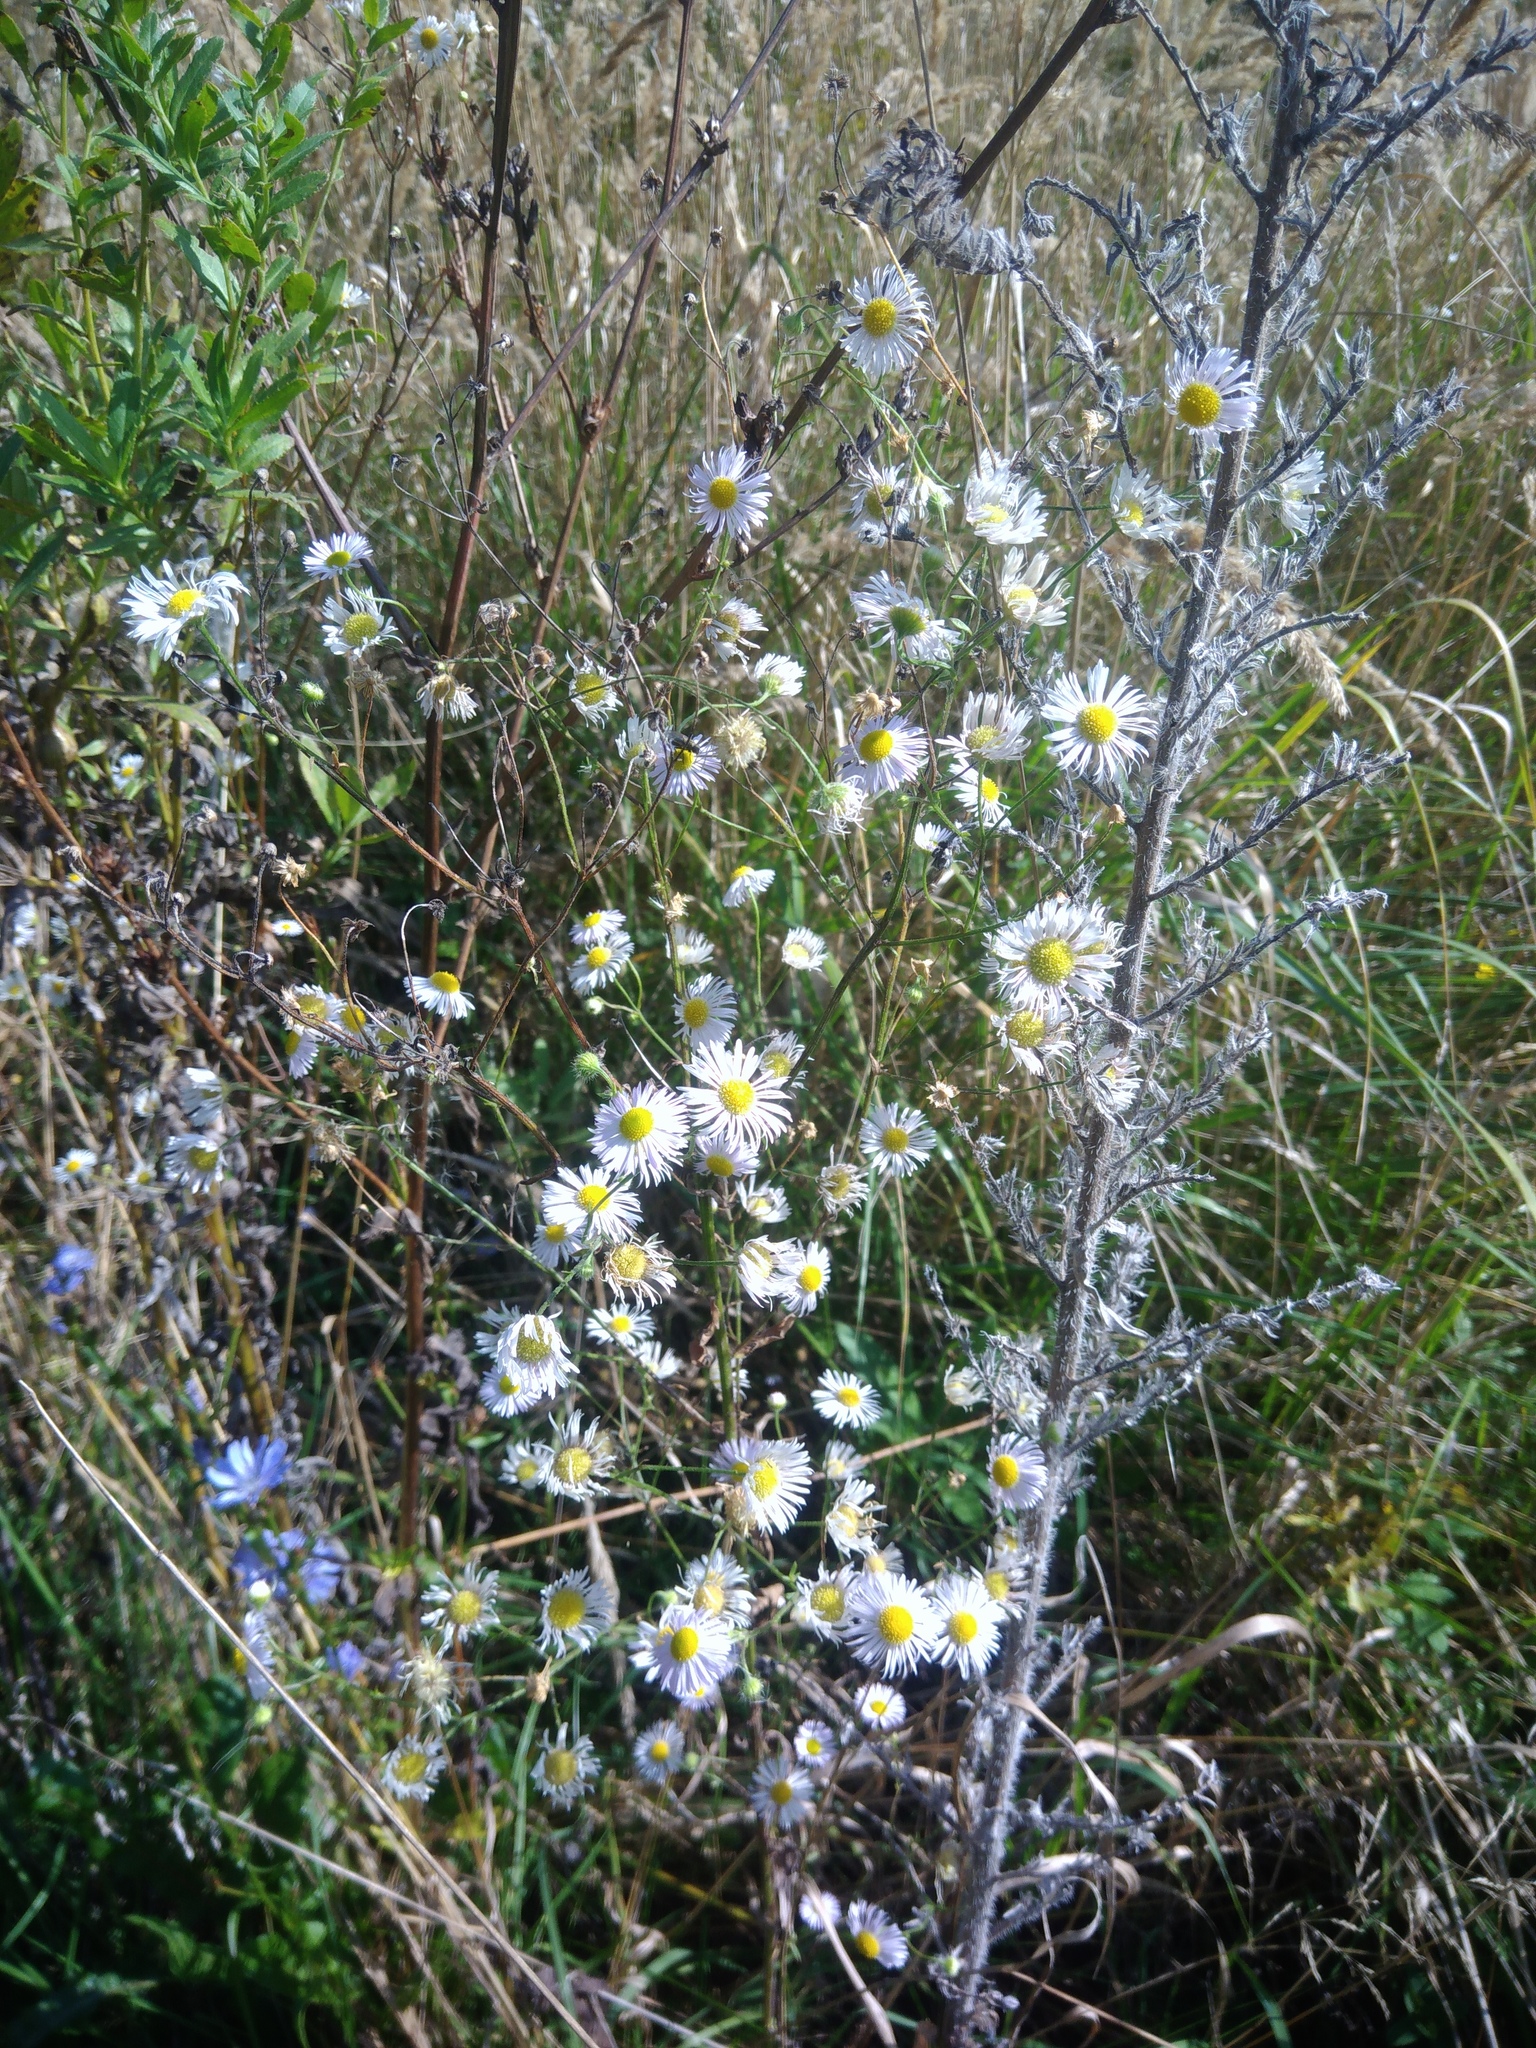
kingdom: Plantae
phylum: Tracheophyta
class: Magnoliopsida
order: Asterales
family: Asteraceae
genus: Erigeron
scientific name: Erigeron annuus
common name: Tall fleabane
